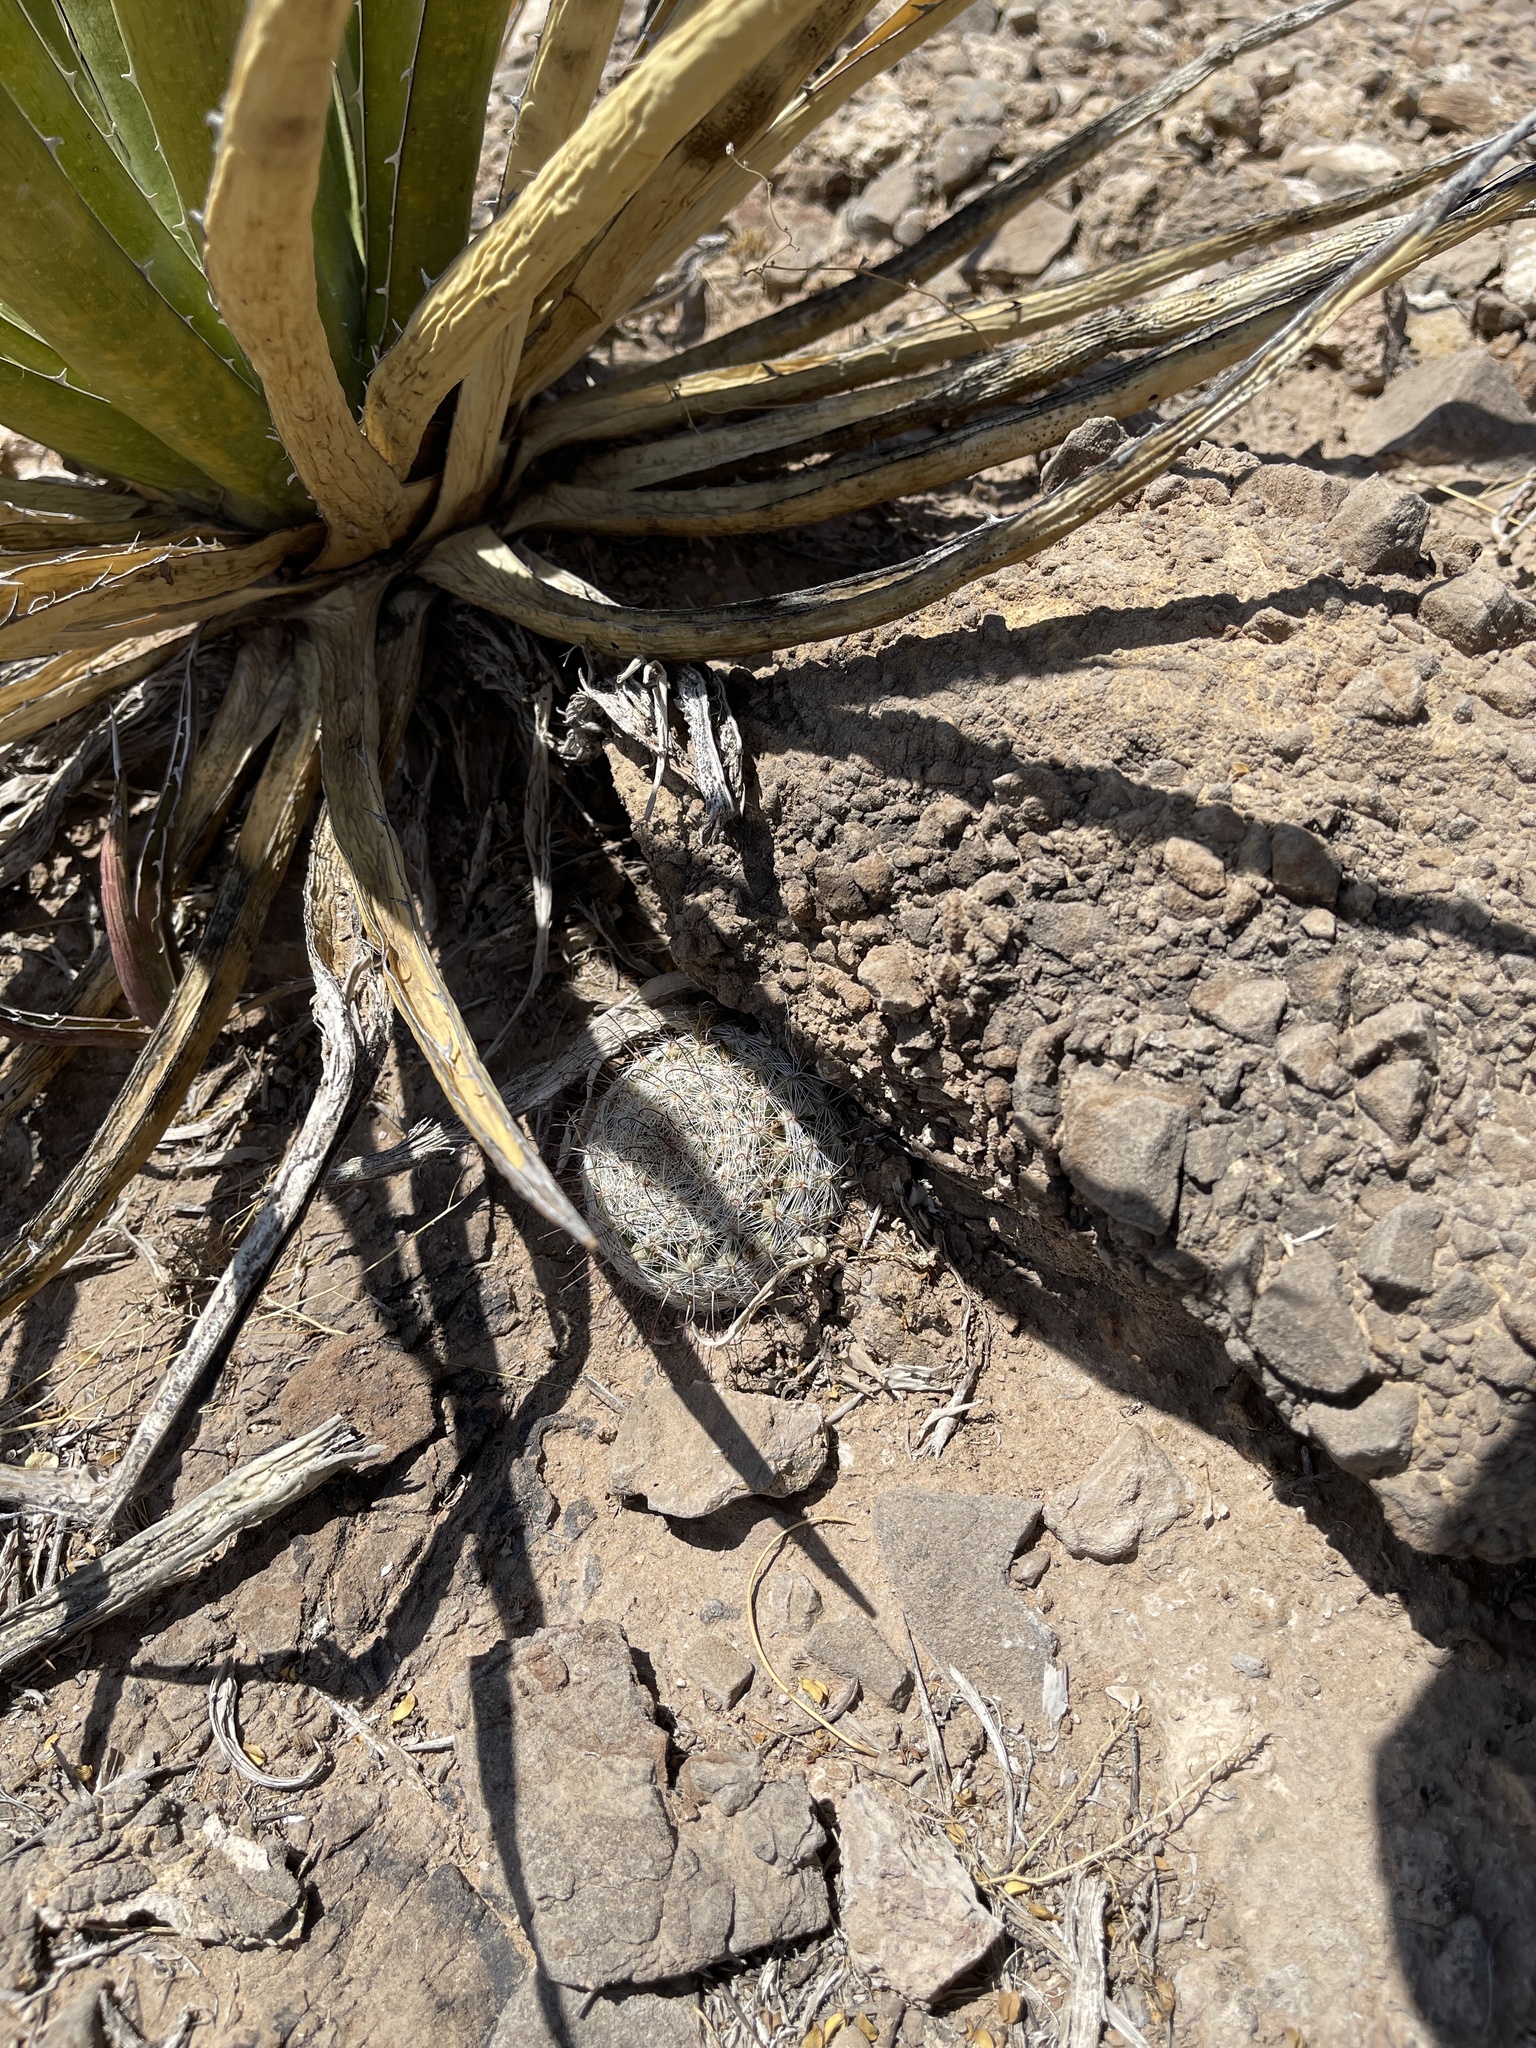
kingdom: Plantae
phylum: Tracheophyta
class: Magnoliopsida
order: Caryophyllales
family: Cactaceae
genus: Cochemiea
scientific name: Cochemiea grahamii
